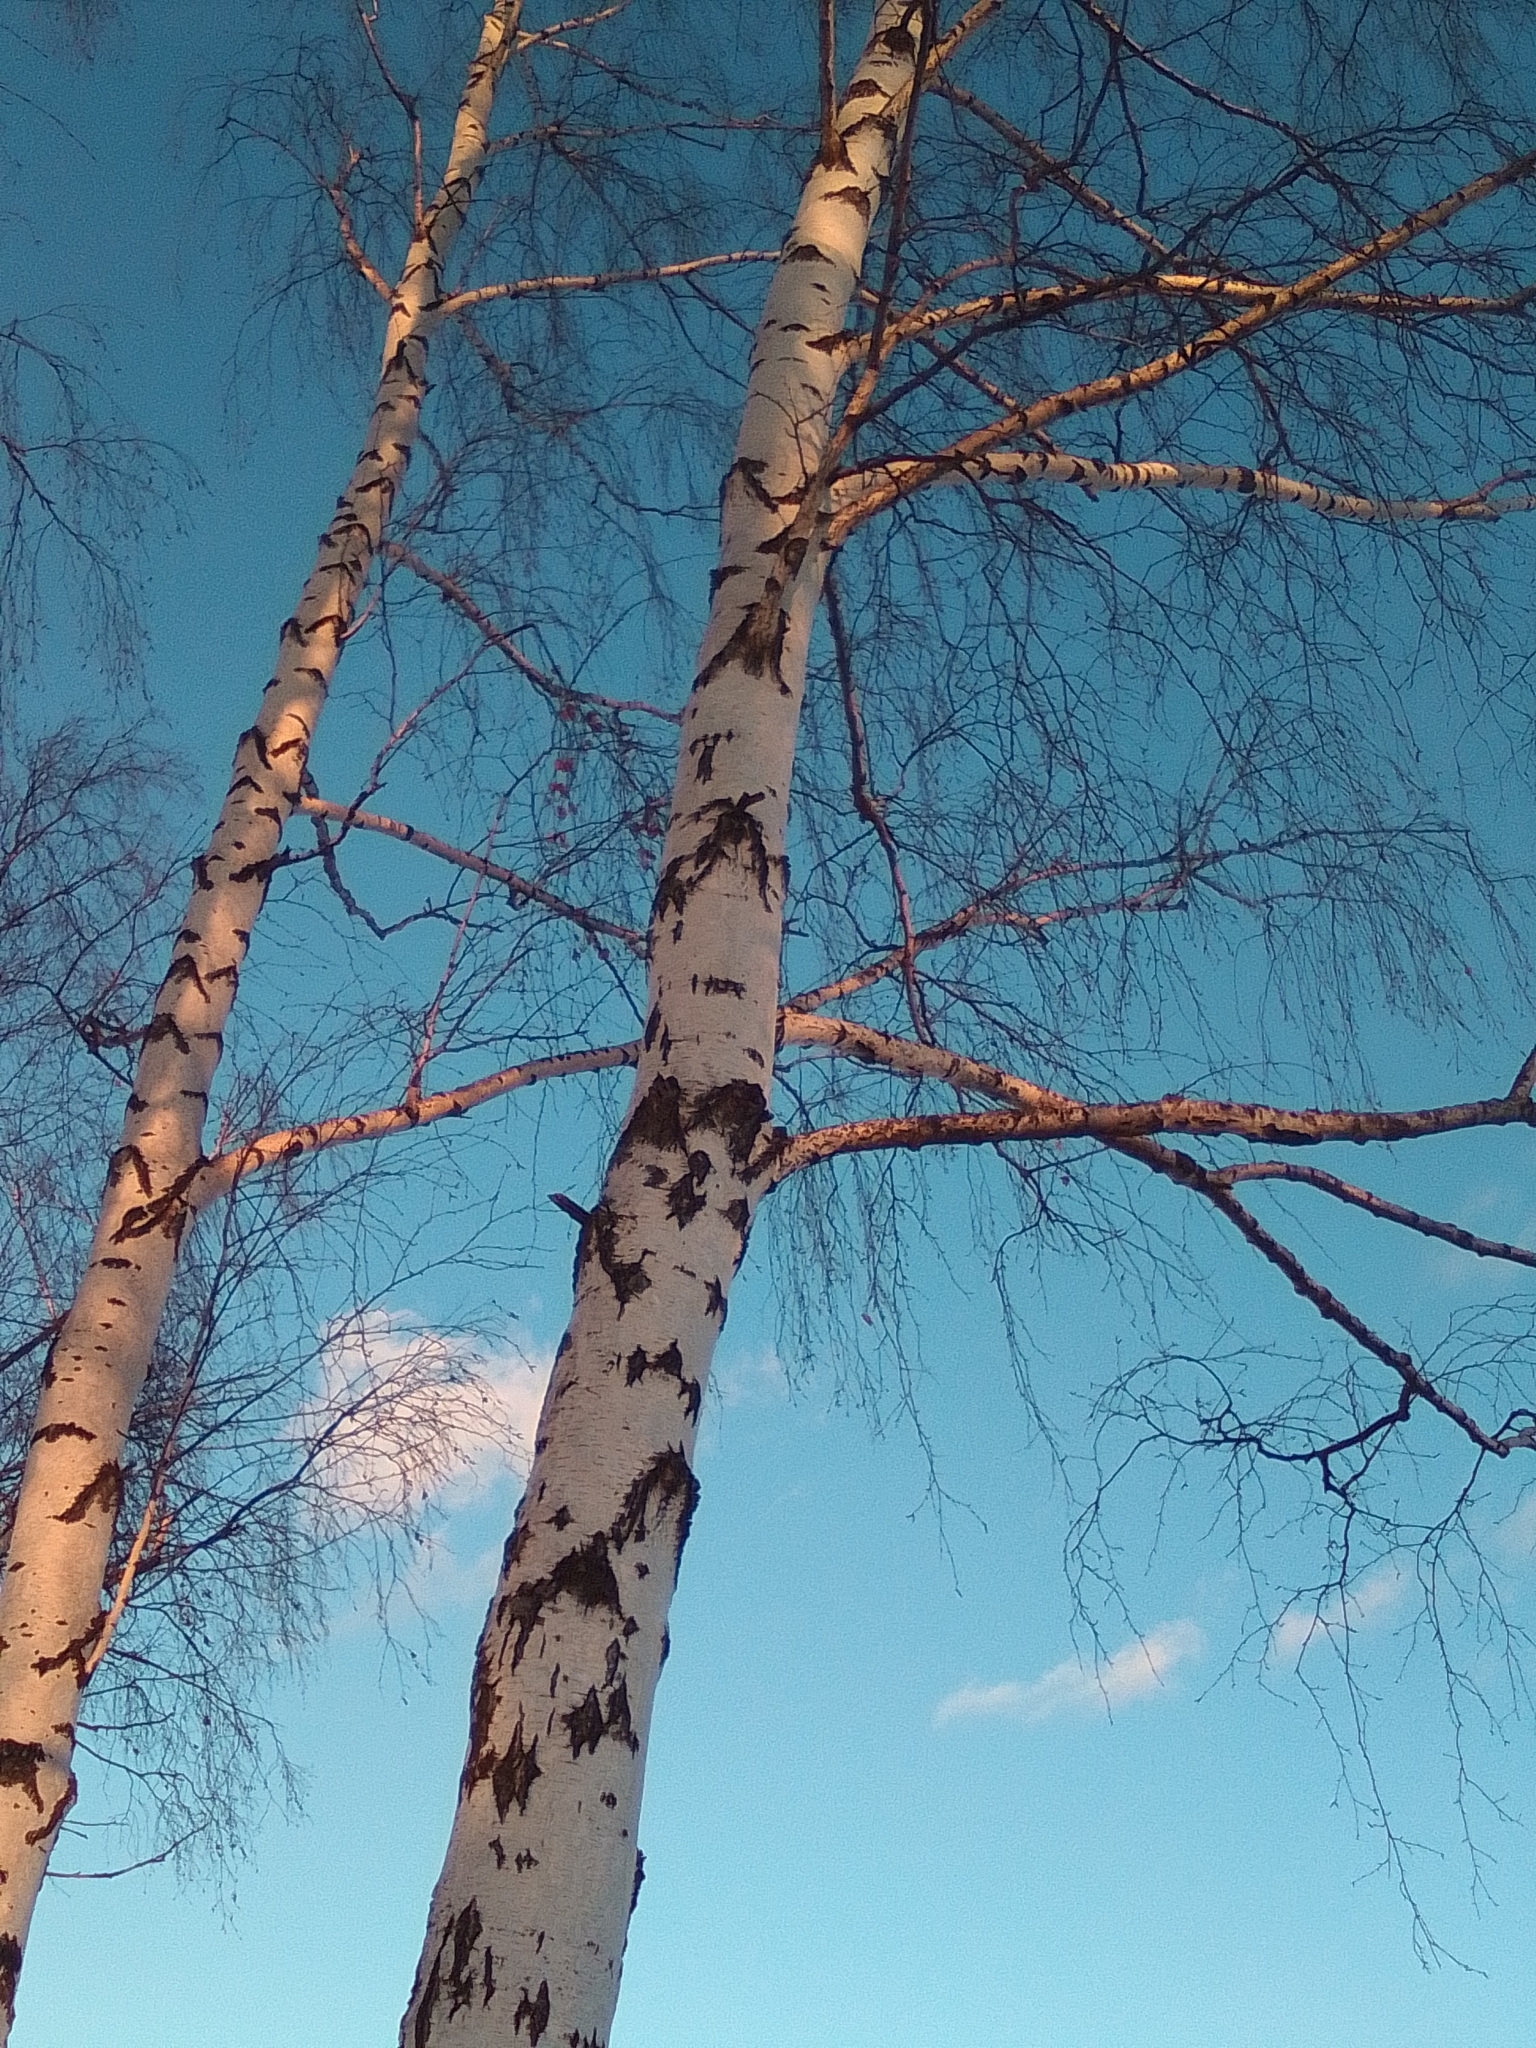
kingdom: Plantae
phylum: Tracheophyta
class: Magnoliopsida
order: Fagales
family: Betulaceae
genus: Betula
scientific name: Betula pendula
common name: Silver birch
